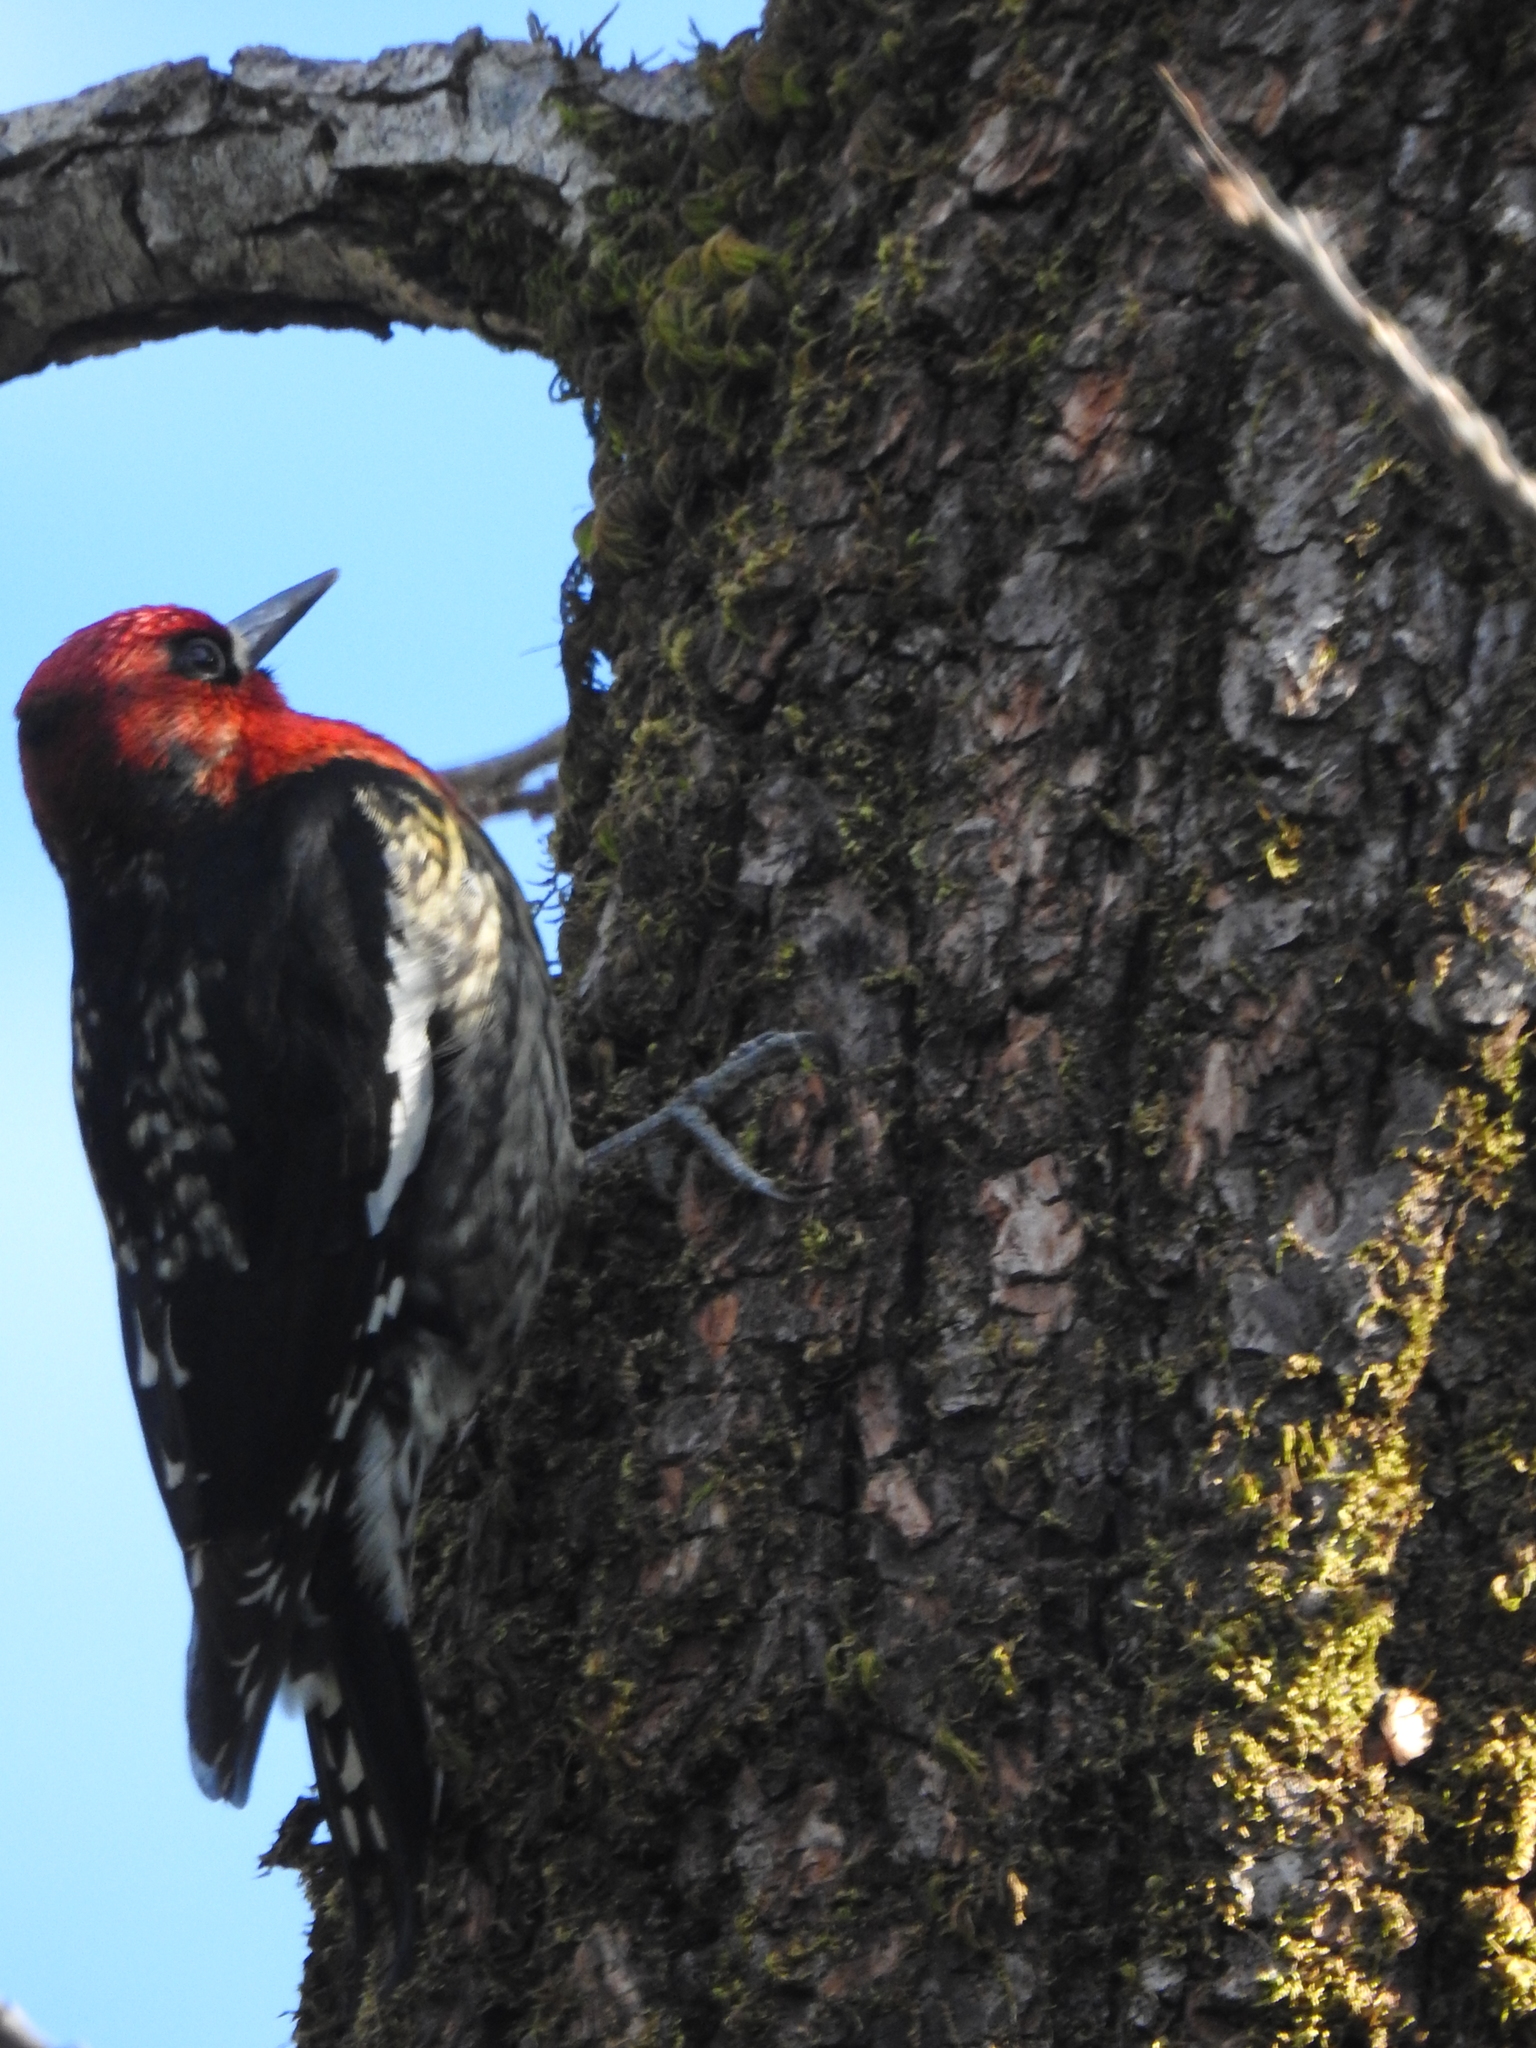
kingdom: Animalia
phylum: Chordata
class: Aves
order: Piciformes
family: Picidae
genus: Sphyrapicus
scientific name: Sphyrapicus ruber
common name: Red-breasted sapsucker
